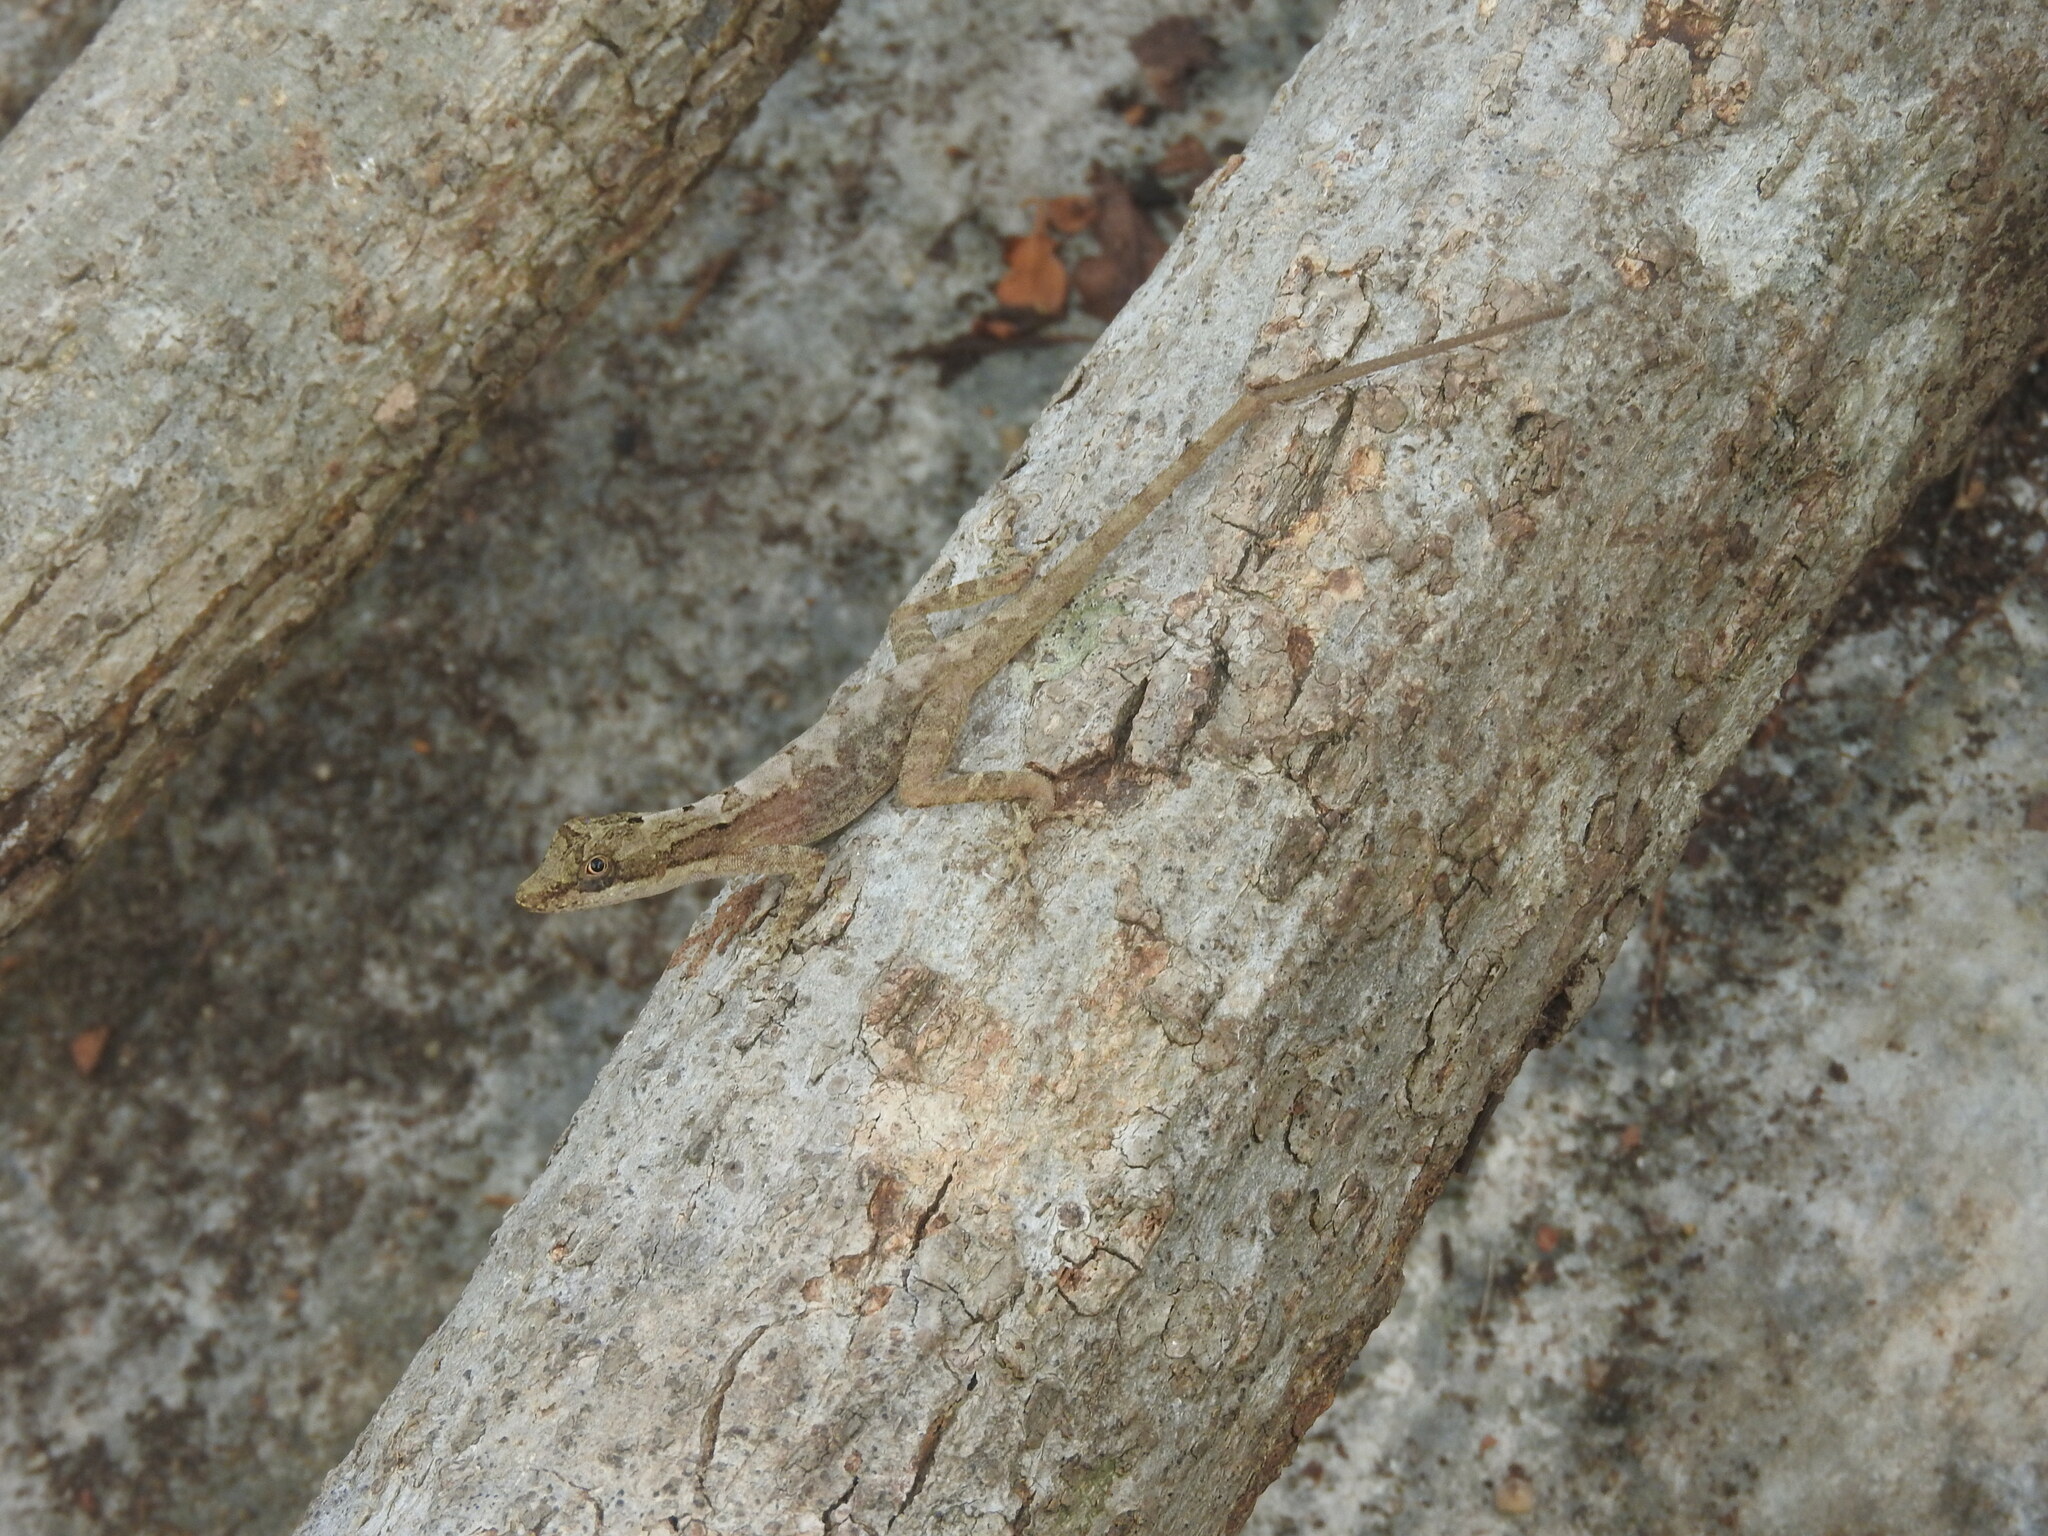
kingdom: Animalia
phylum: Chordata
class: Squamata
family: Dactyloidae
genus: Anolis
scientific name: Anolis rodriguezii
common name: Middle american smooth anole
